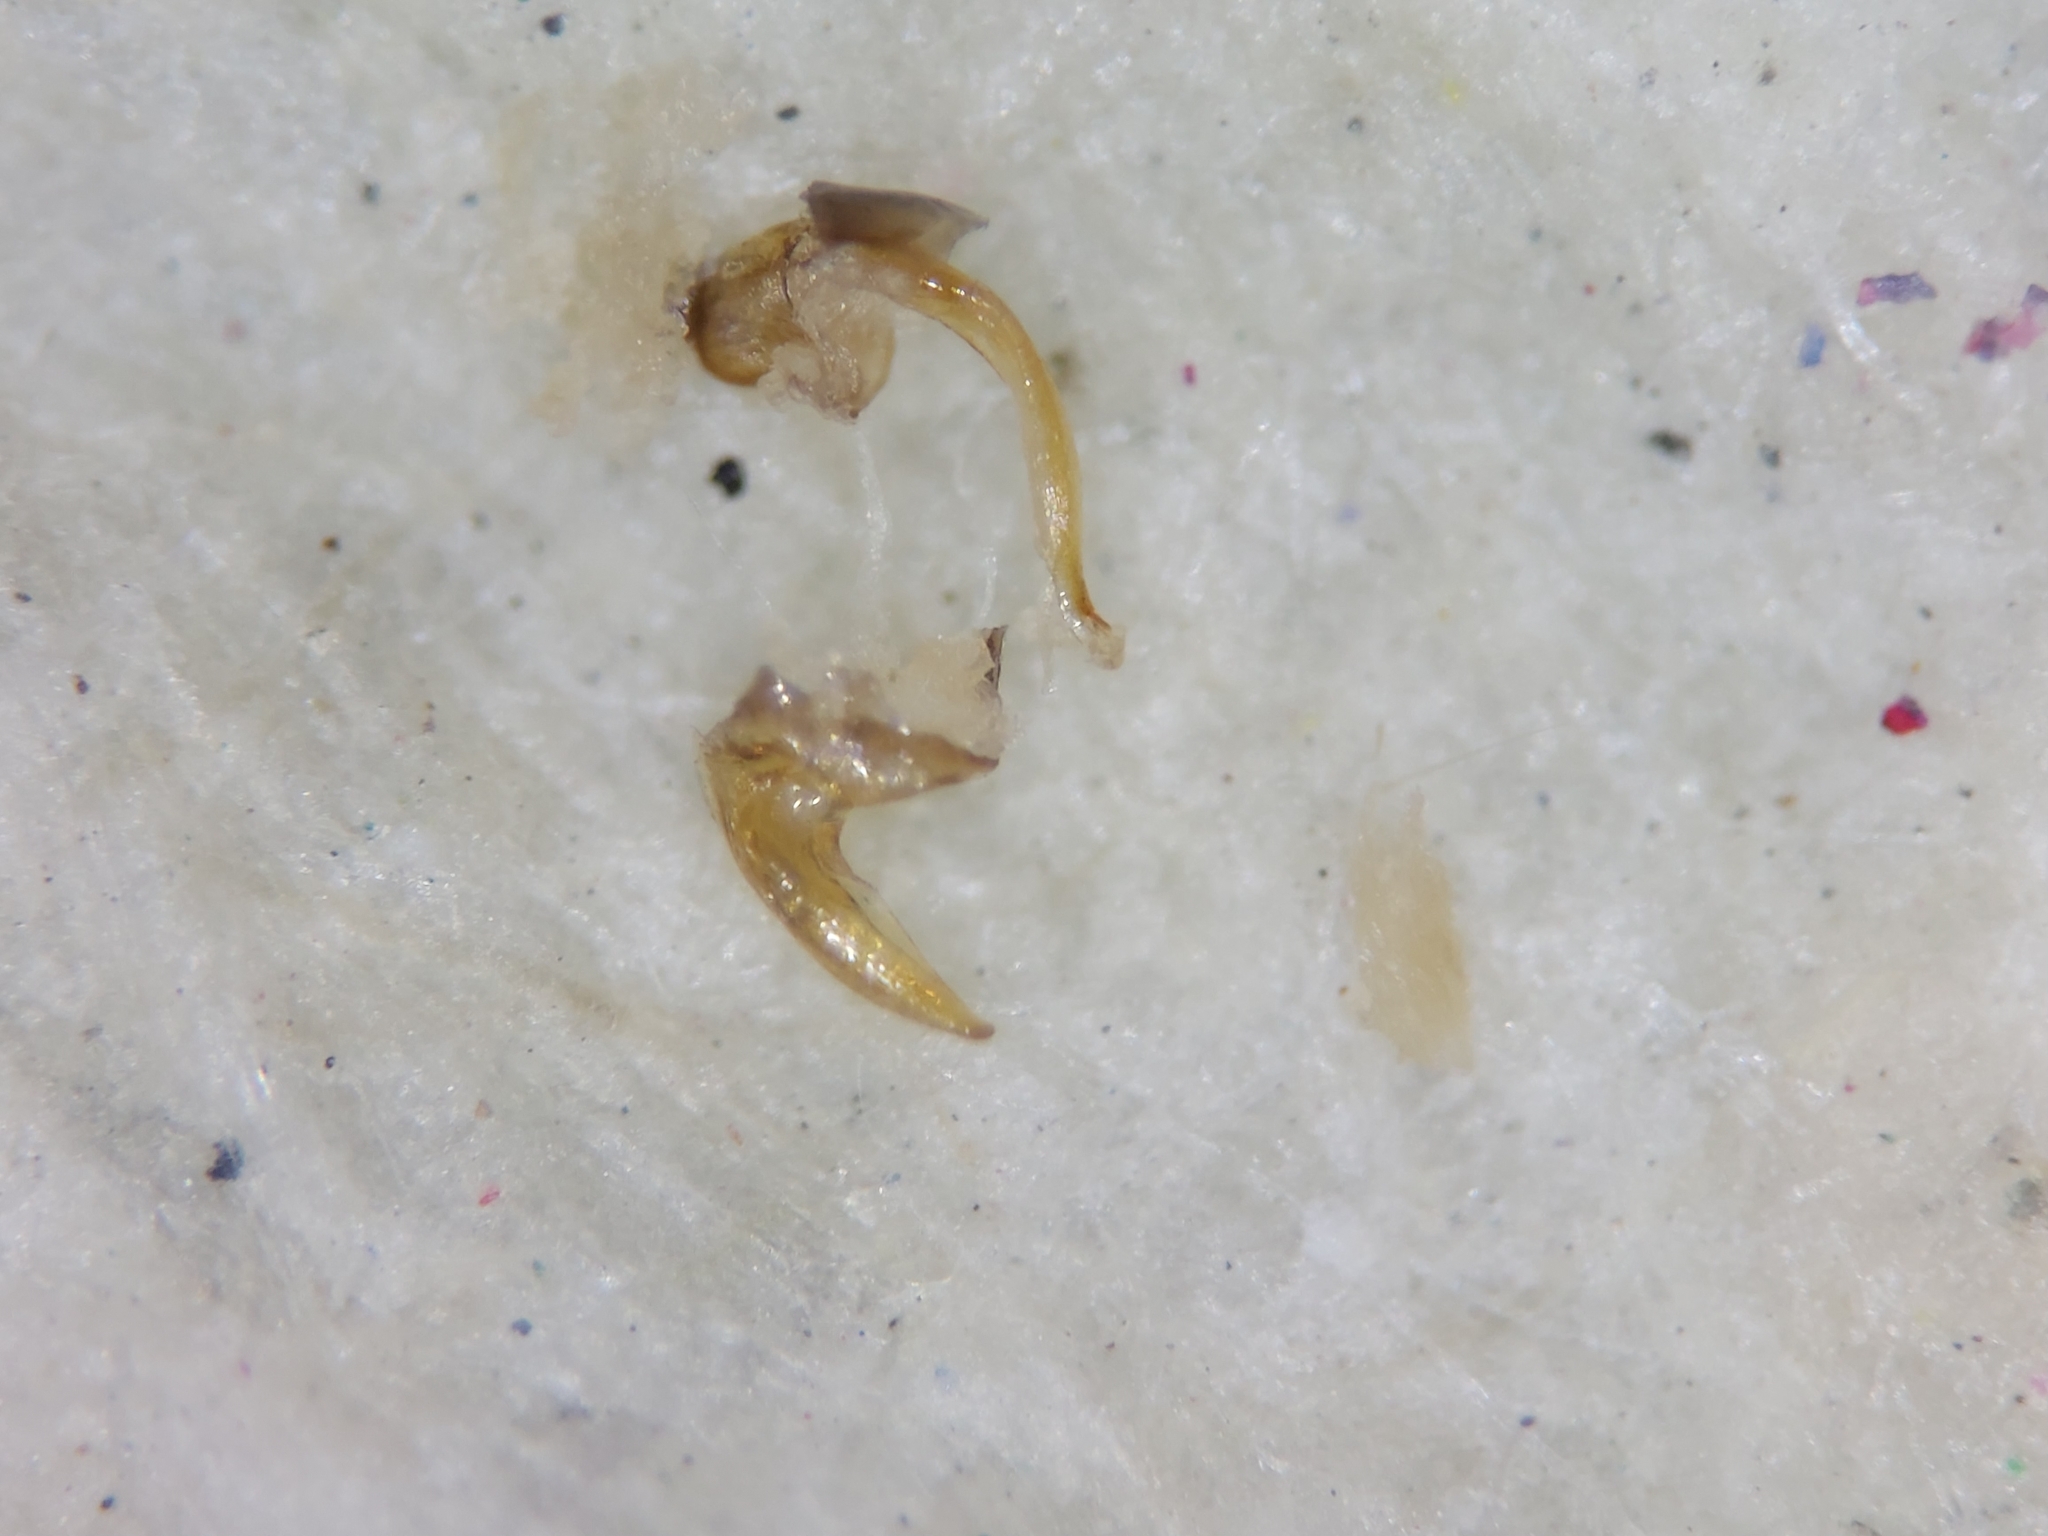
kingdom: Animalia
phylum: Arthropoda
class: Insecta
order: Hemiptera
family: Corixidae
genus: Sigara
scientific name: Sigara nigrolineata
